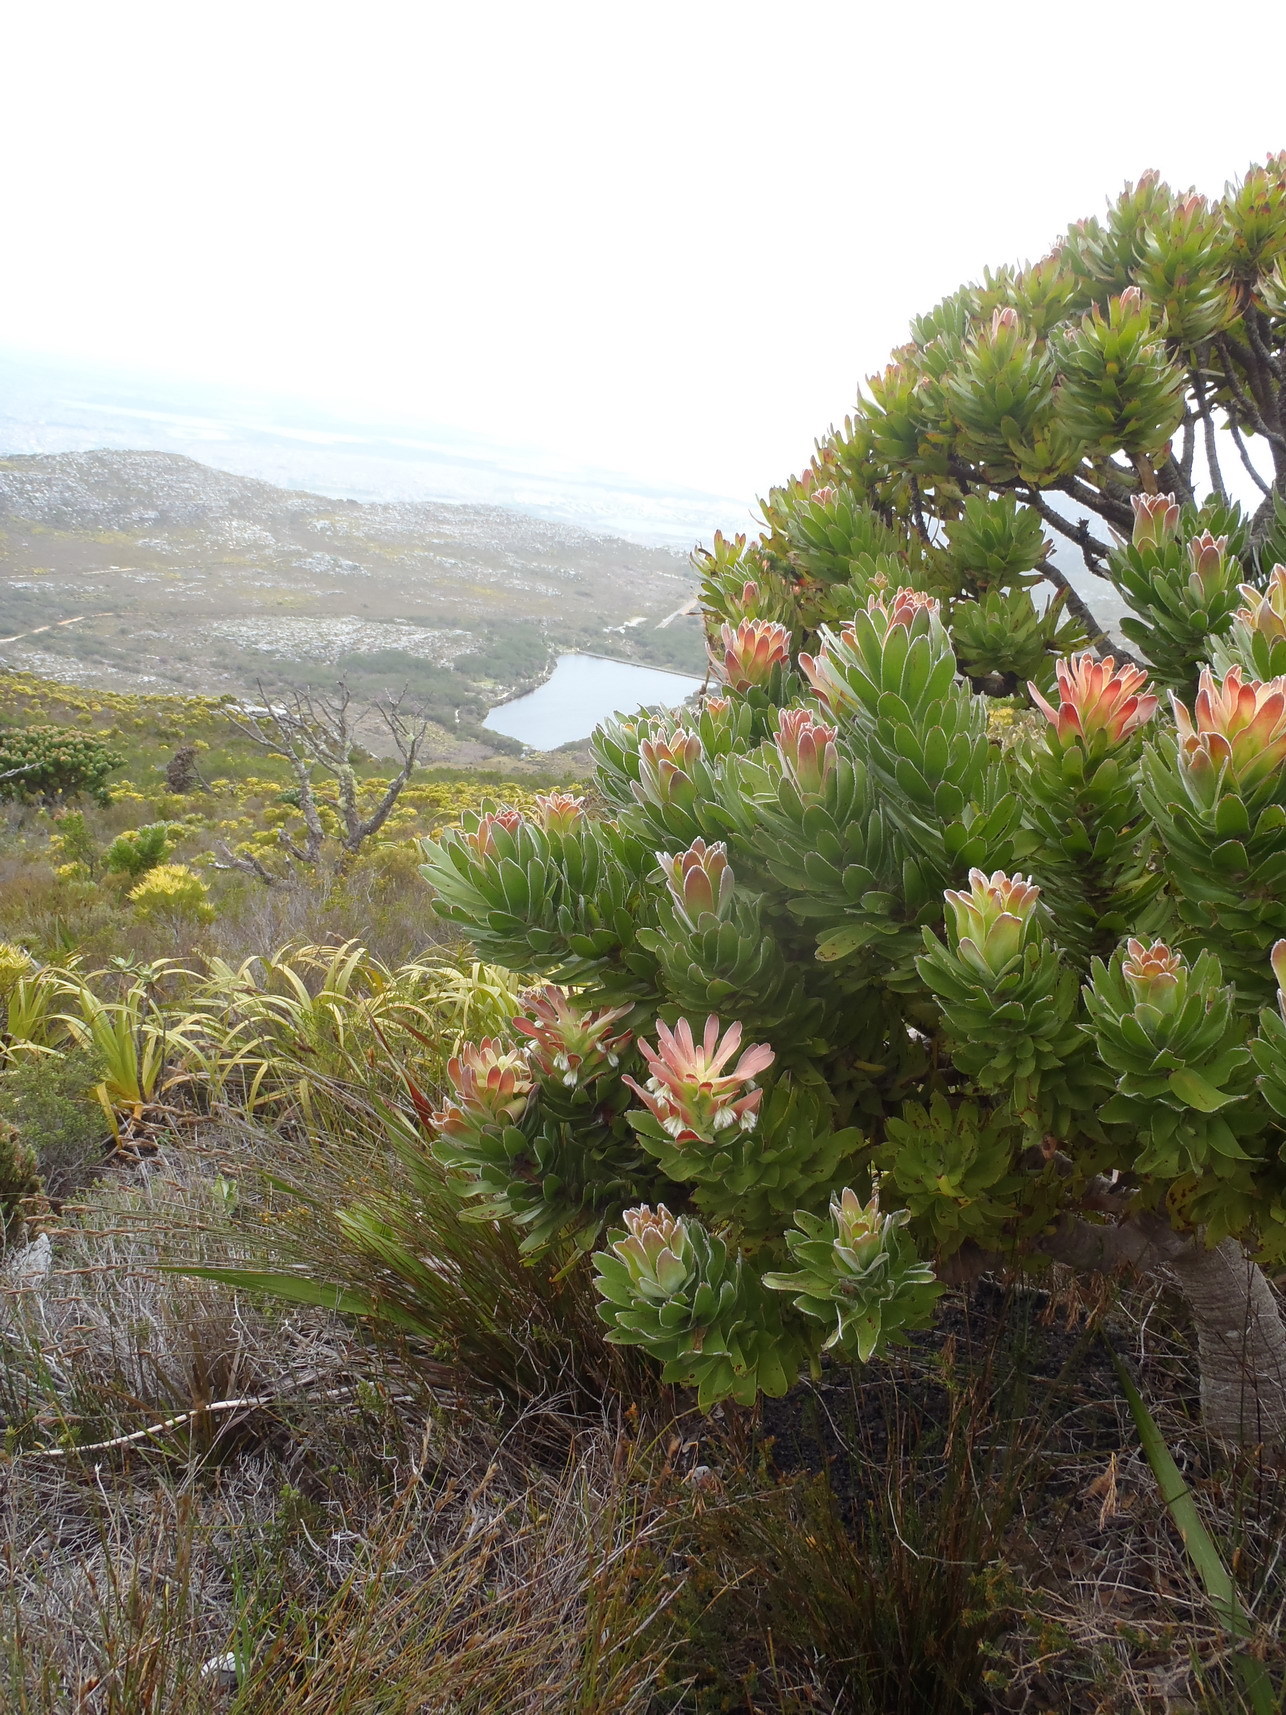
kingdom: Plantae
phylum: Tracheophyta
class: Magnoliopsida
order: Proteales
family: Proteaceae
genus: Mimetes
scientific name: Mimetes fimbriifolius
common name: Fringed bottlebrush
